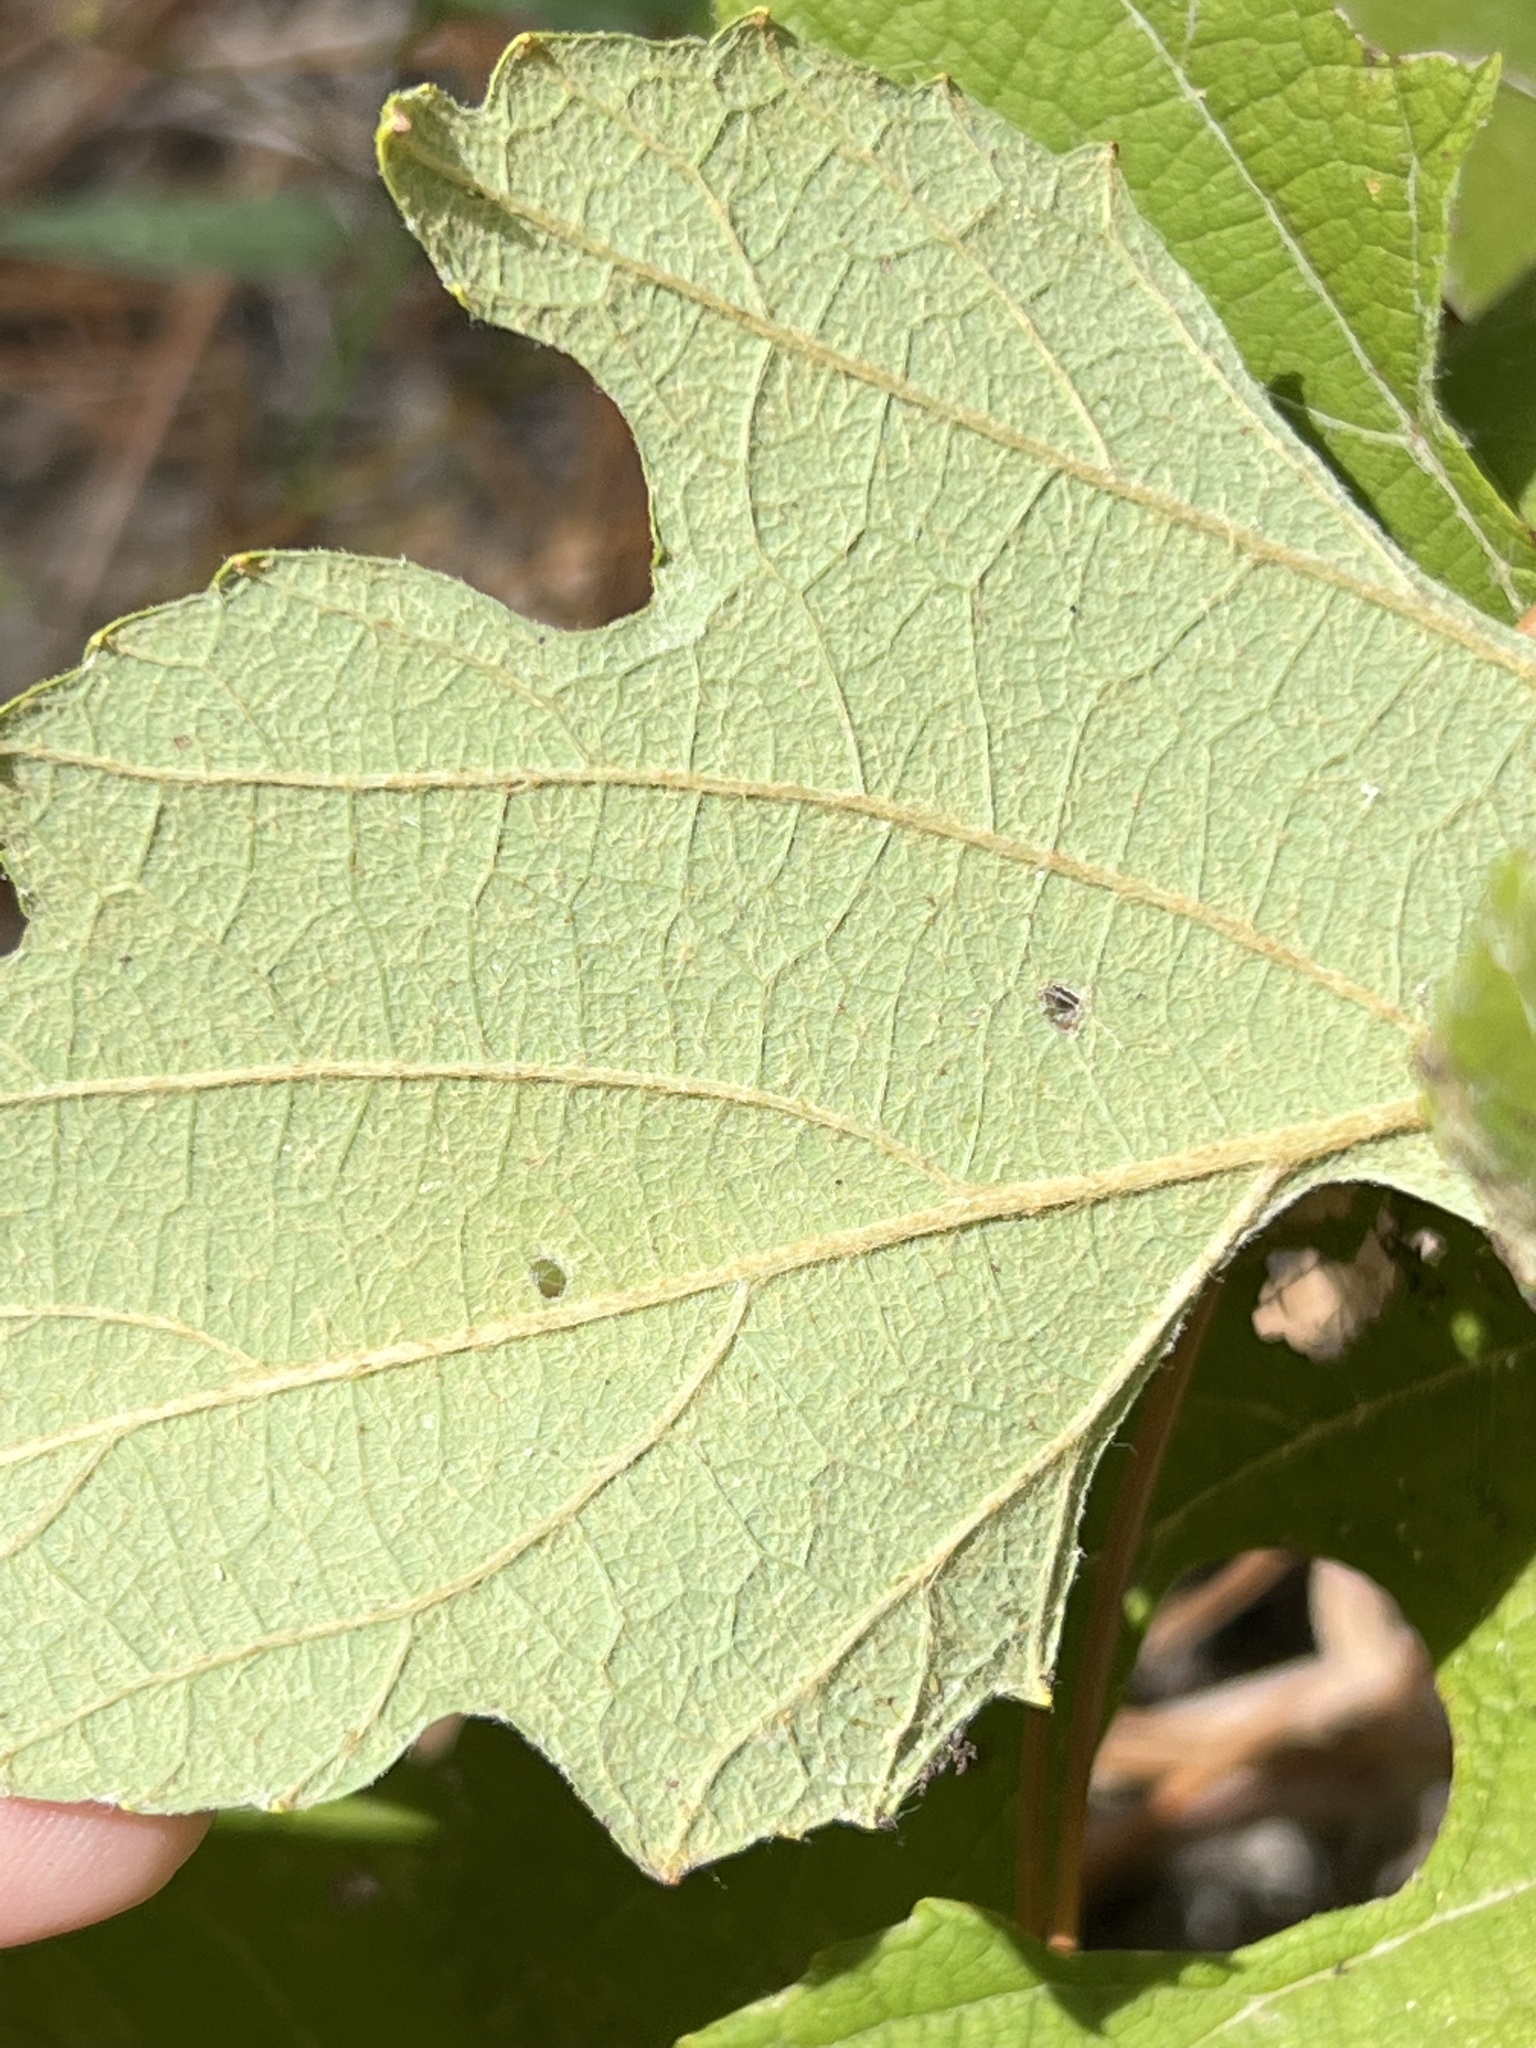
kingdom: Plantae
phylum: Tracheophyta
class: Magnoliopsida
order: Vitales
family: Vitaceae
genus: Vitis
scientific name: Vitis aestivalis
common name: Pigeon grape
